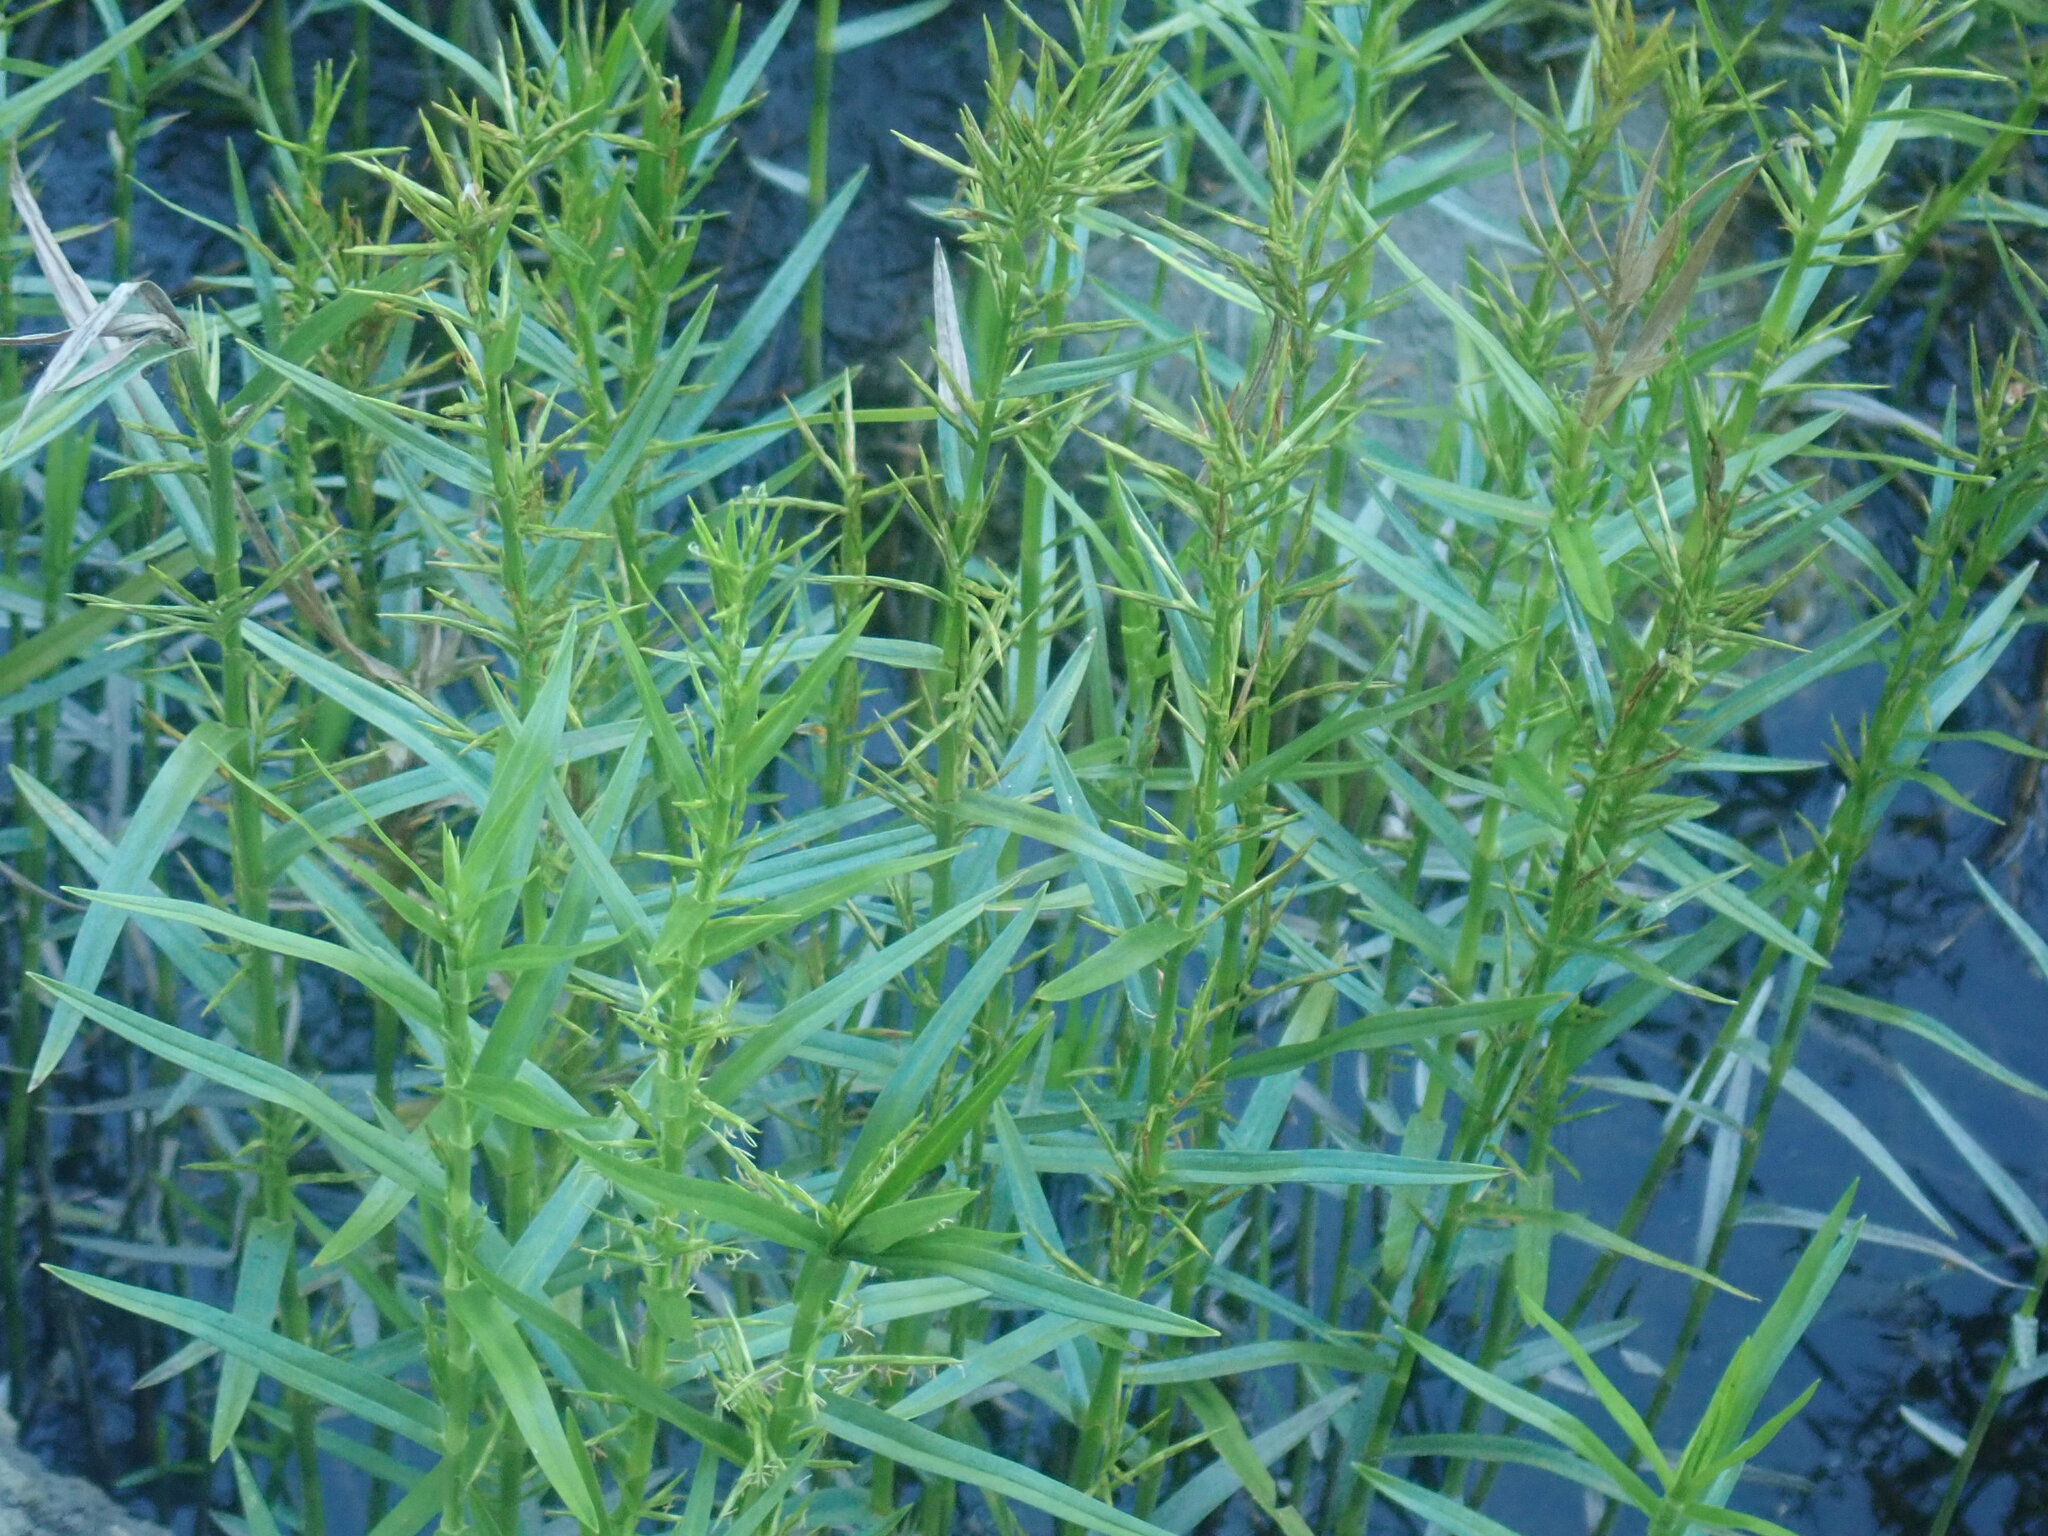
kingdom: Plantae
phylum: Tracheophyta
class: Liliopsida
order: Poales
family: Cyperaceae
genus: Dulichium
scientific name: Dulichium arundinaceum
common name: Three-way sedge
